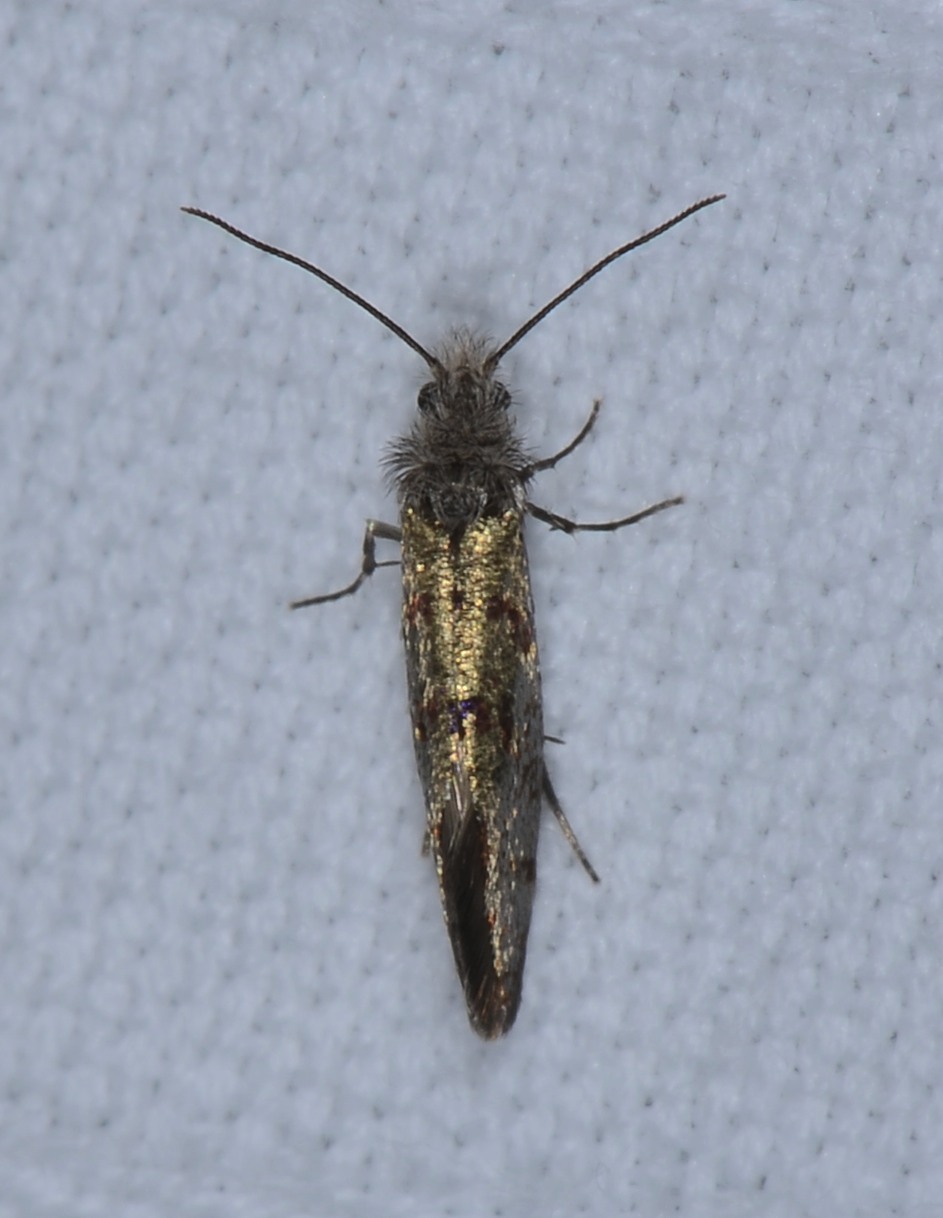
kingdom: Animalia
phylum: Arthropoda
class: Insecta
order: Lepidoptera
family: Eriocraniidae
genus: Dyseriocrania
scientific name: Dyseriocrania auricyanea
